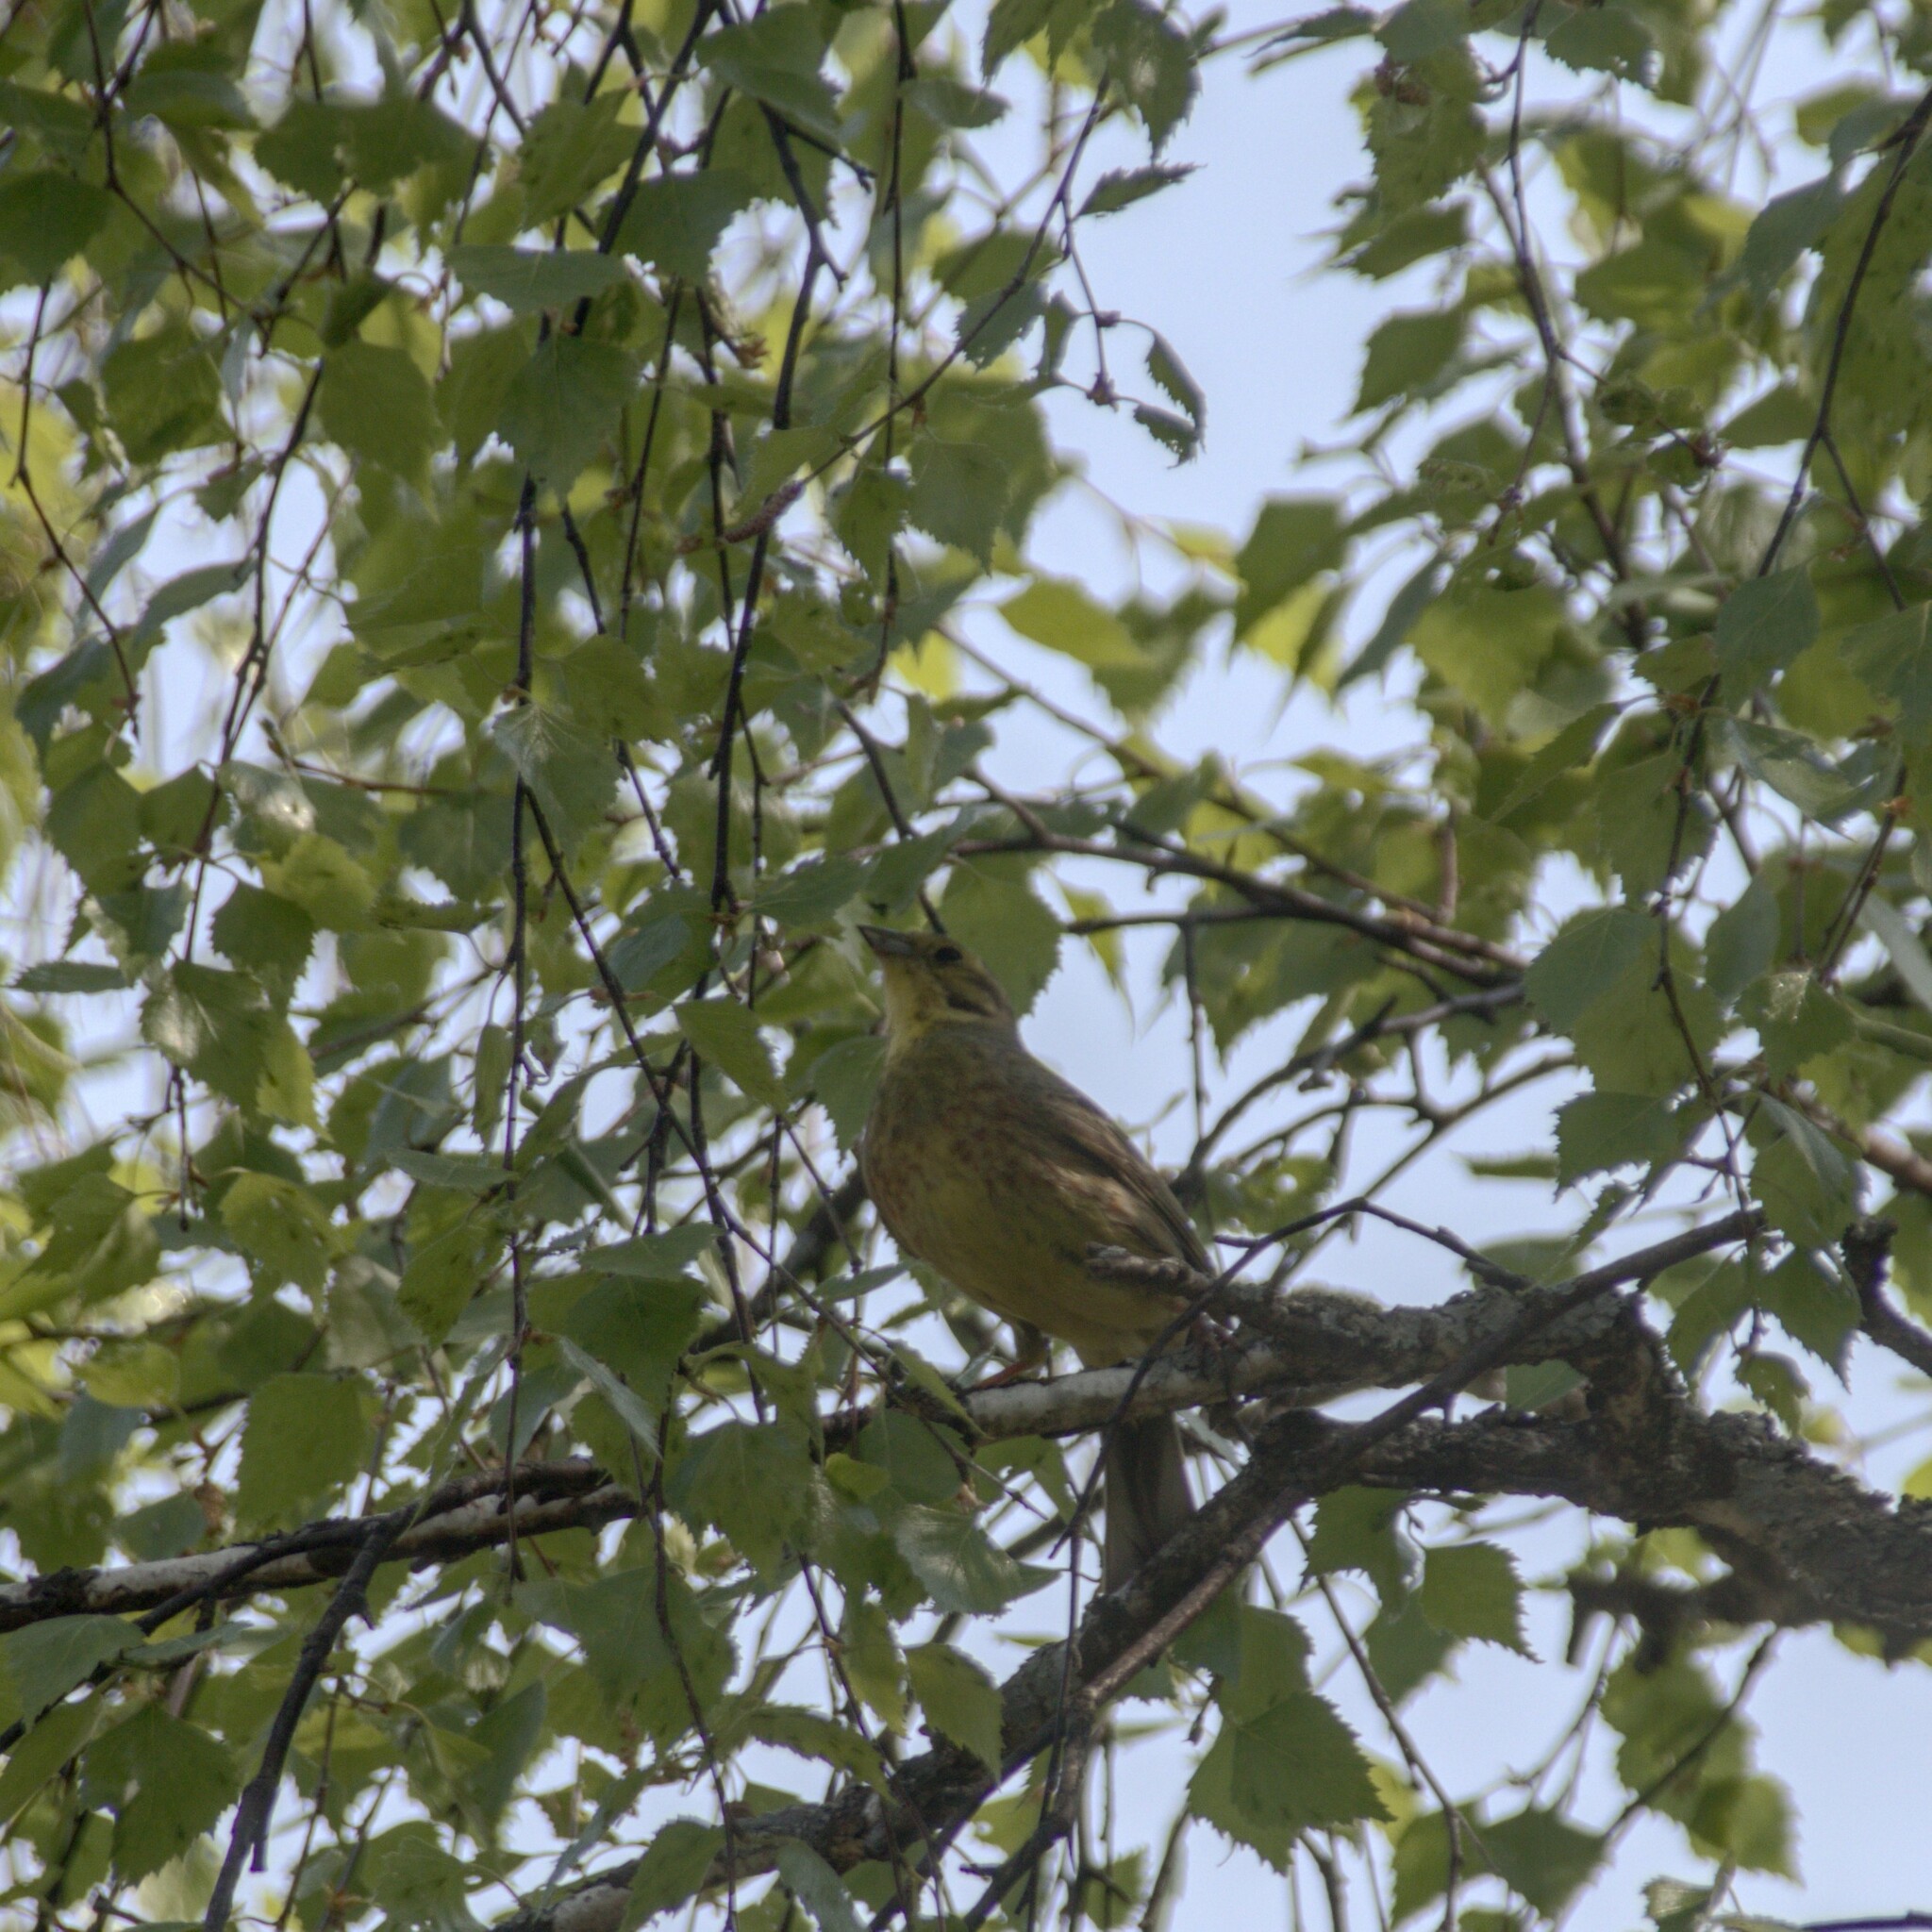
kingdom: Animalia
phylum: Chordata
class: Aves
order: Passeriformes
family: Emberizidae
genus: Emberiza
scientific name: Emberiza citrinella
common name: Yellowhammer
